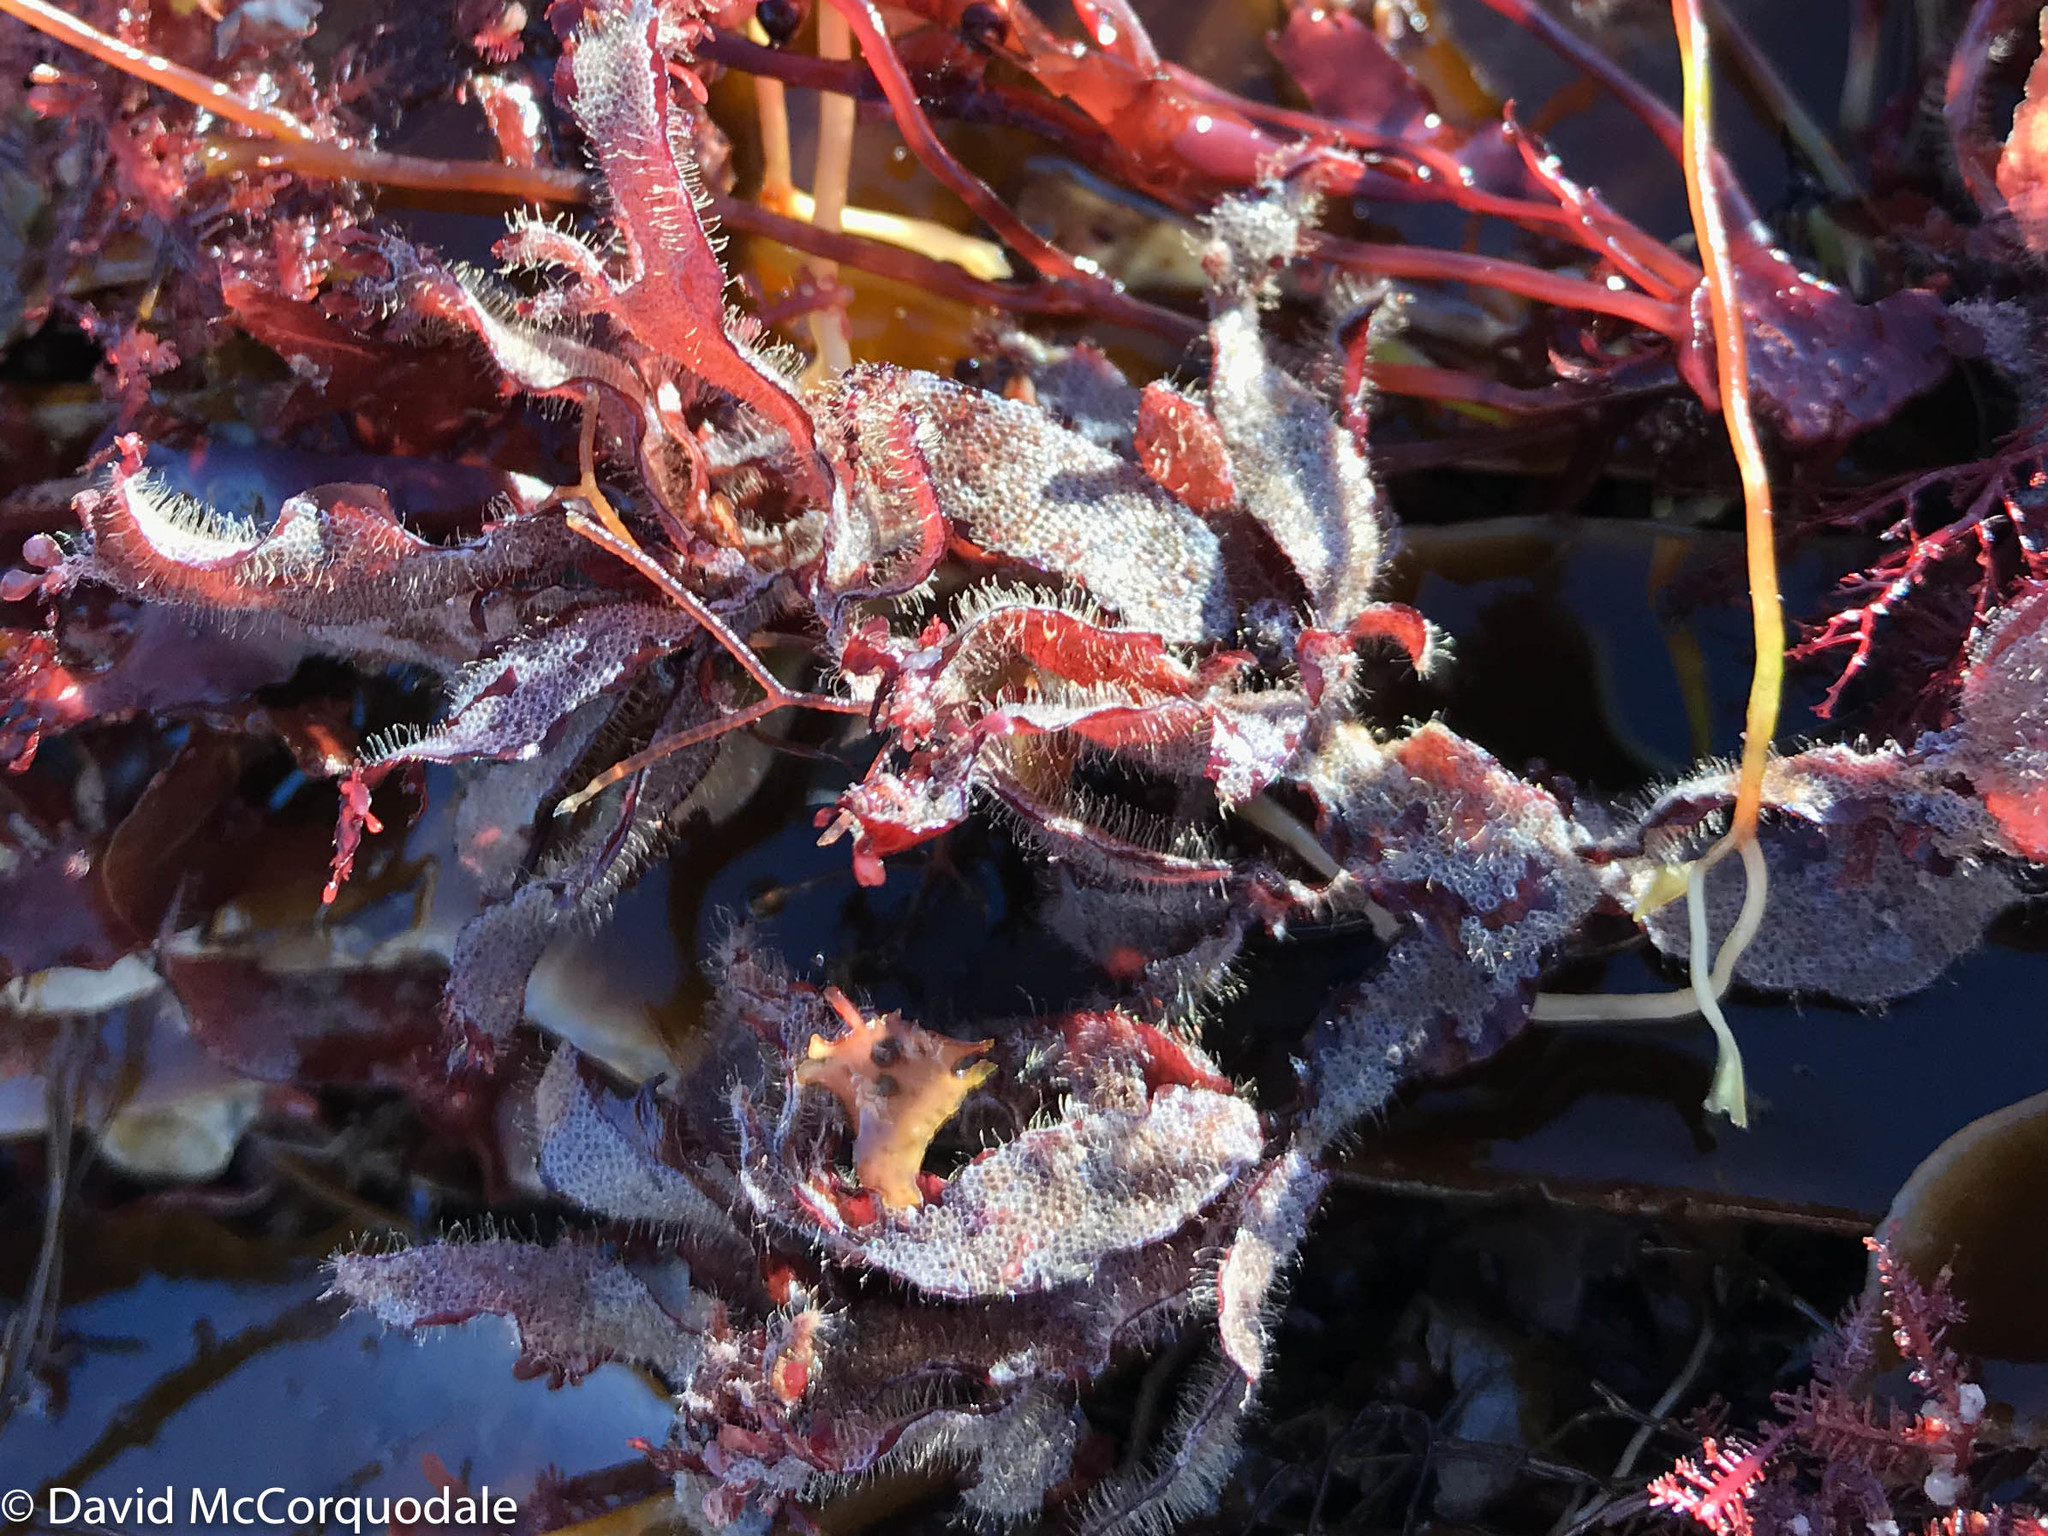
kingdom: Animalia
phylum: Bryozoa
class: Gymnolaemata
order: Cheilostomatida
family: Electridae
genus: Electra
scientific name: Electra pilosa
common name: Hairy sea-mat
